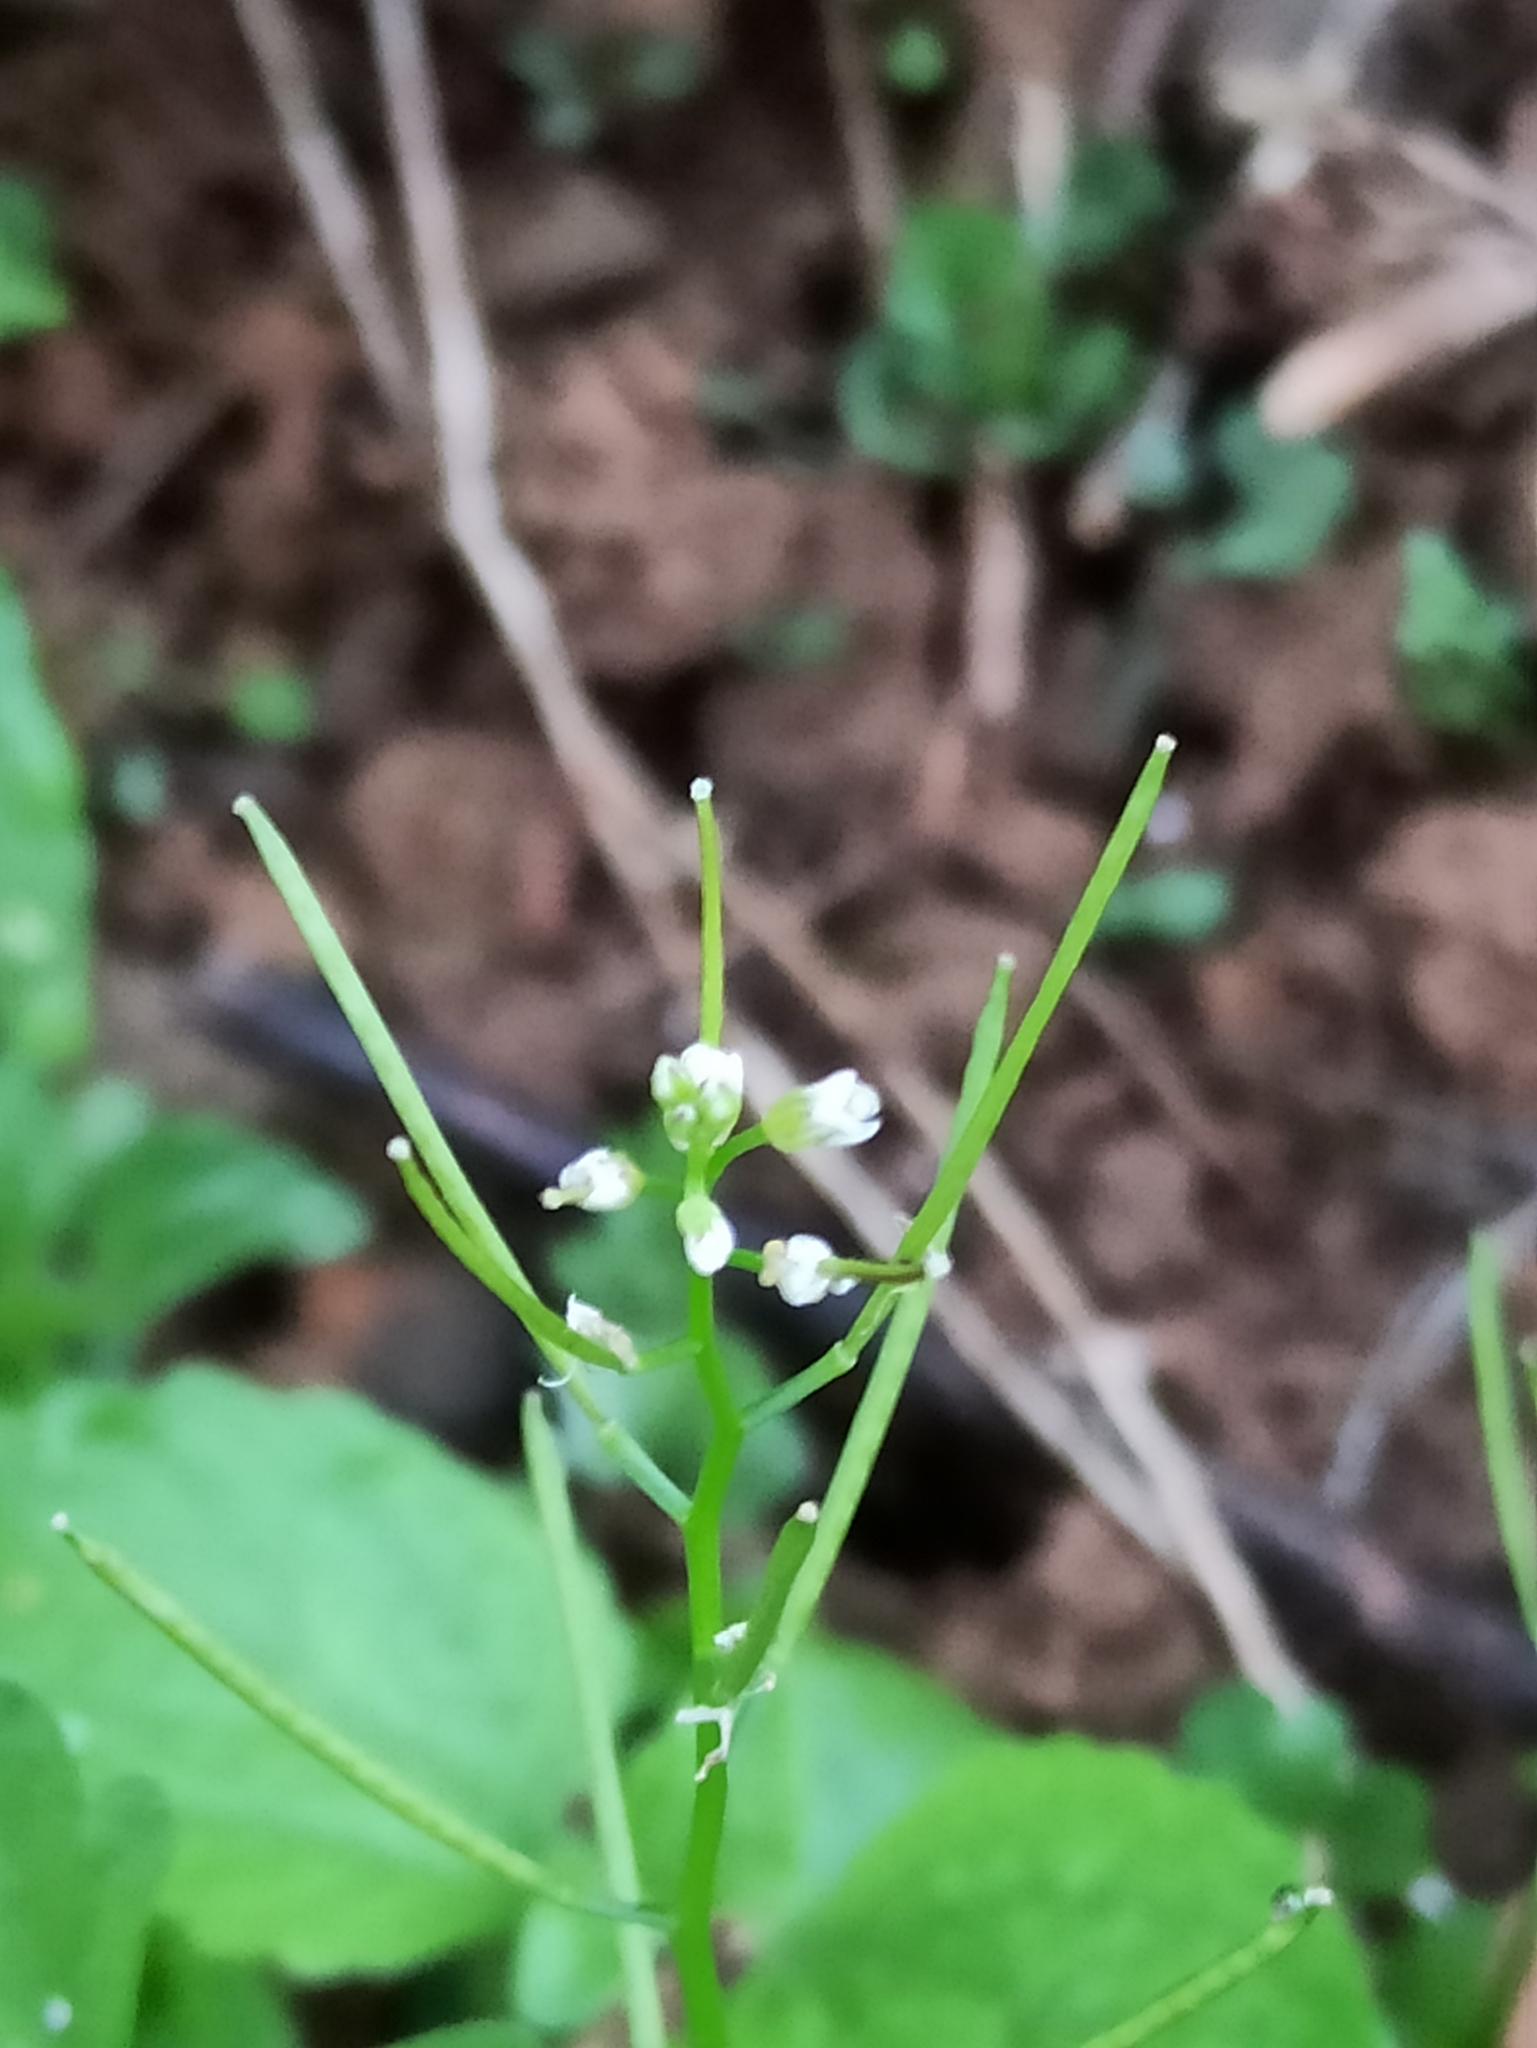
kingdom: Plantae
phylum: Tracheophyta
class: Magnoliopsida
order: Brassicales
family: Brassicaceae
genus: Cardamine
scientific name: Cardamine hirsuta
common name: Hairy bittercress
